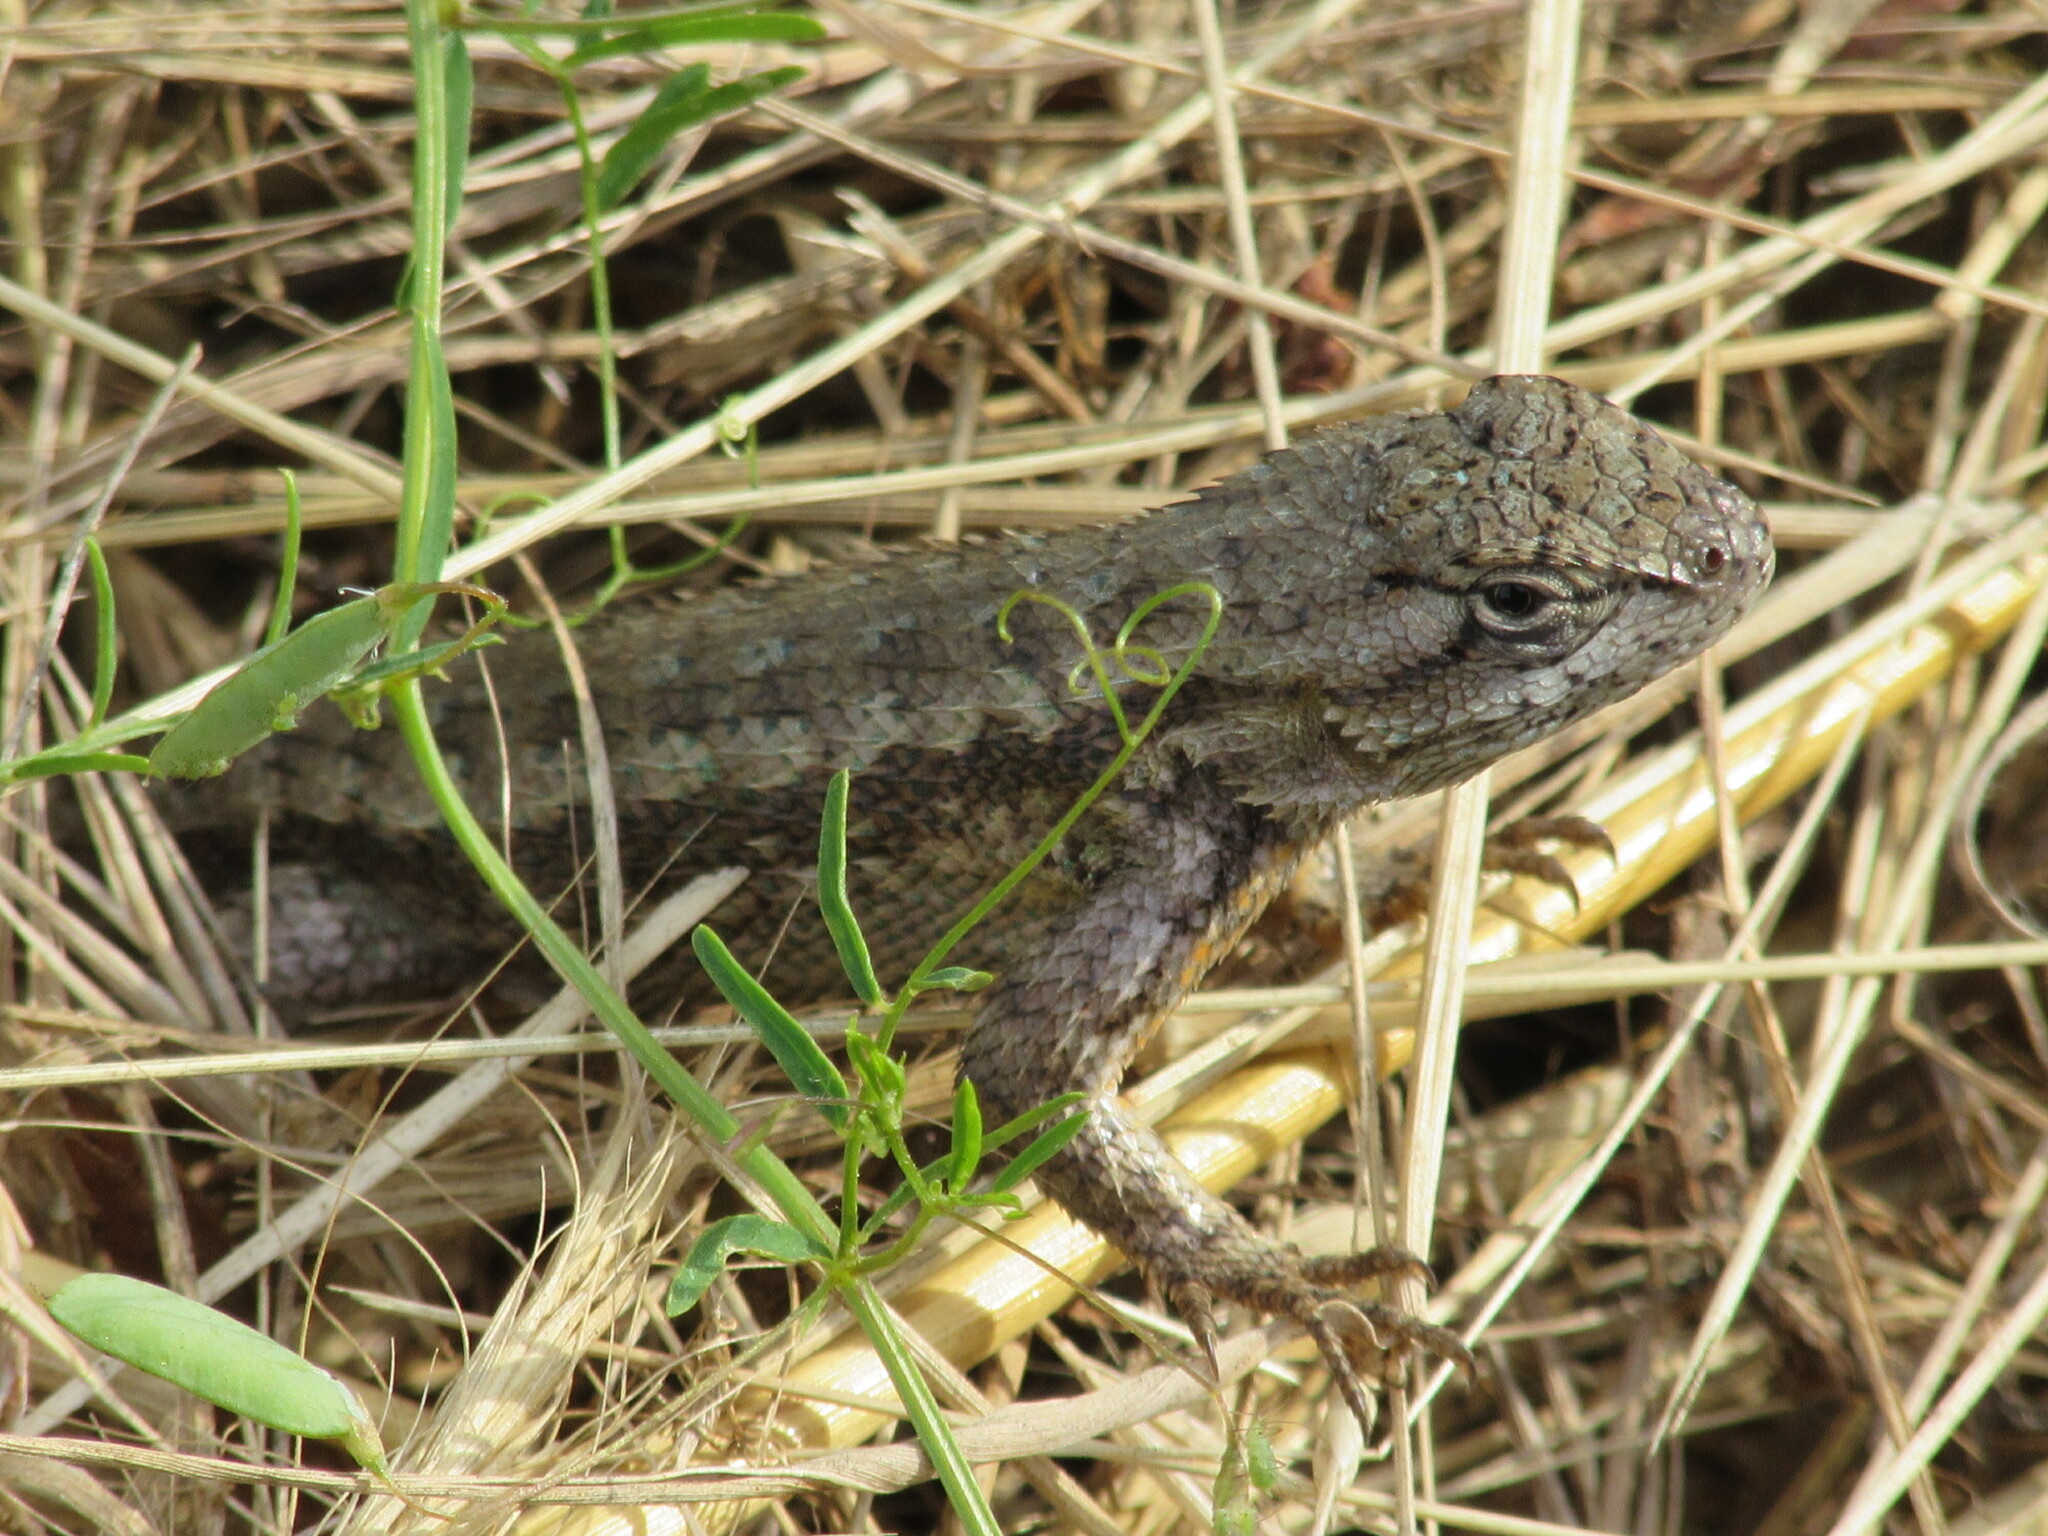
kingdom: Animalia
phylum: Chordata
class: Squamata
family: Phrynosomatidae
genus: Sceloporus
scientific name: Sceloporus occidentalis
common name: Western fence lizard
